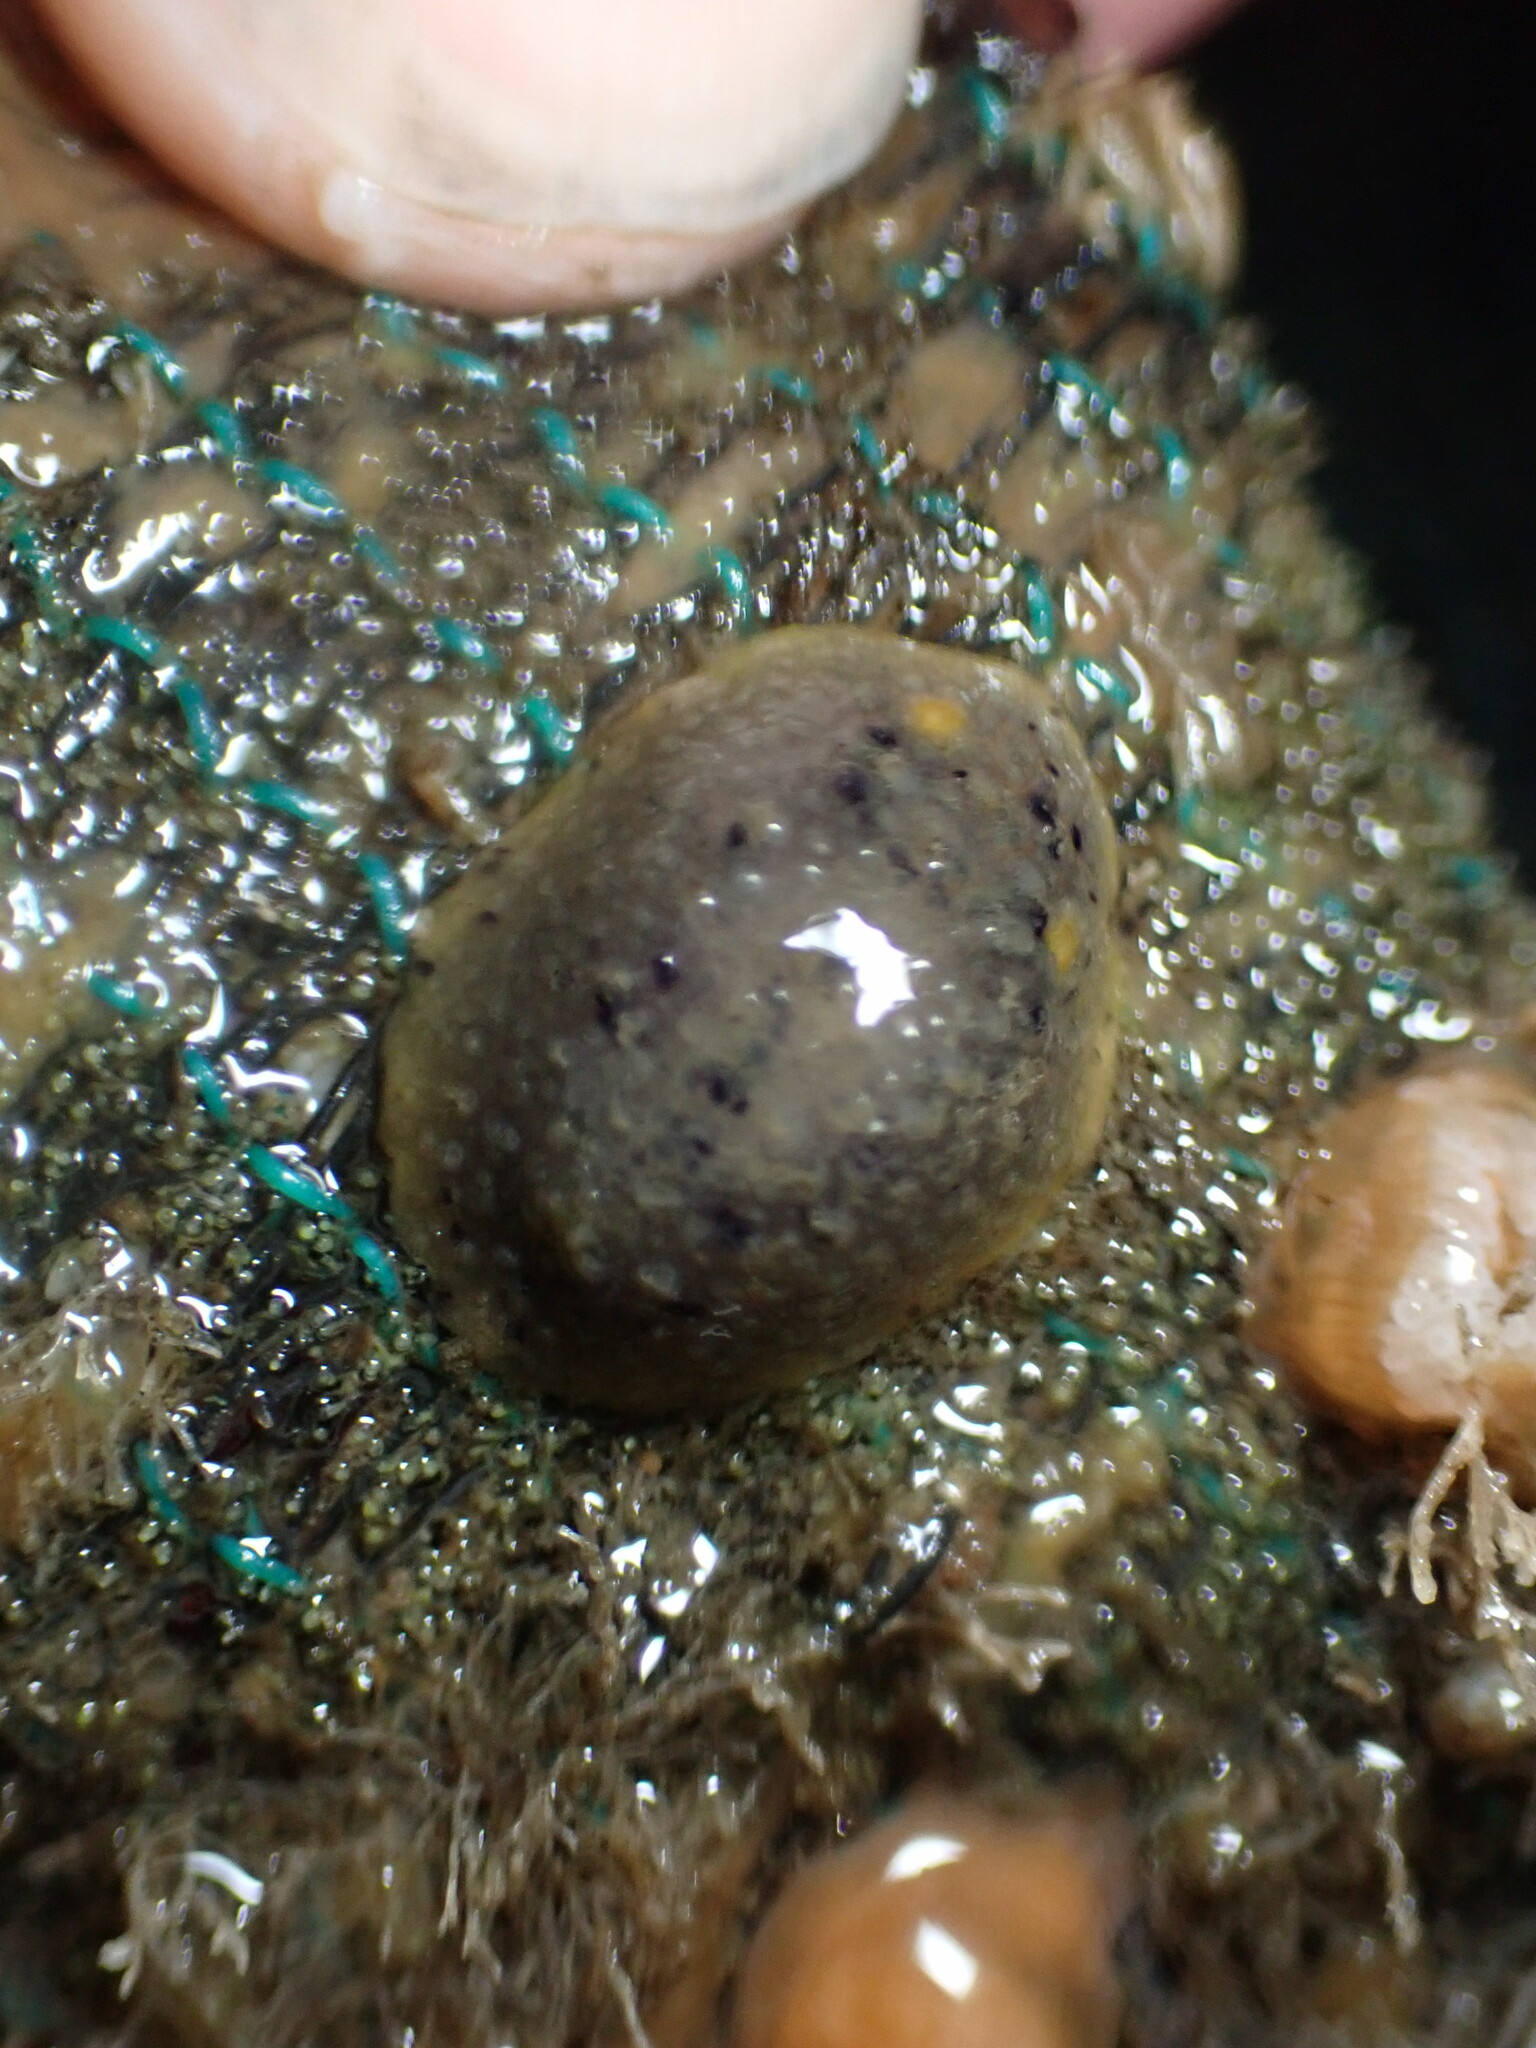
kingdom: Animalia
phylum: Mollusca
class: Gastropoda
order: Nudibranchia
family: Dorididae
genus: Doris
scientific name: Doris montereyensis
